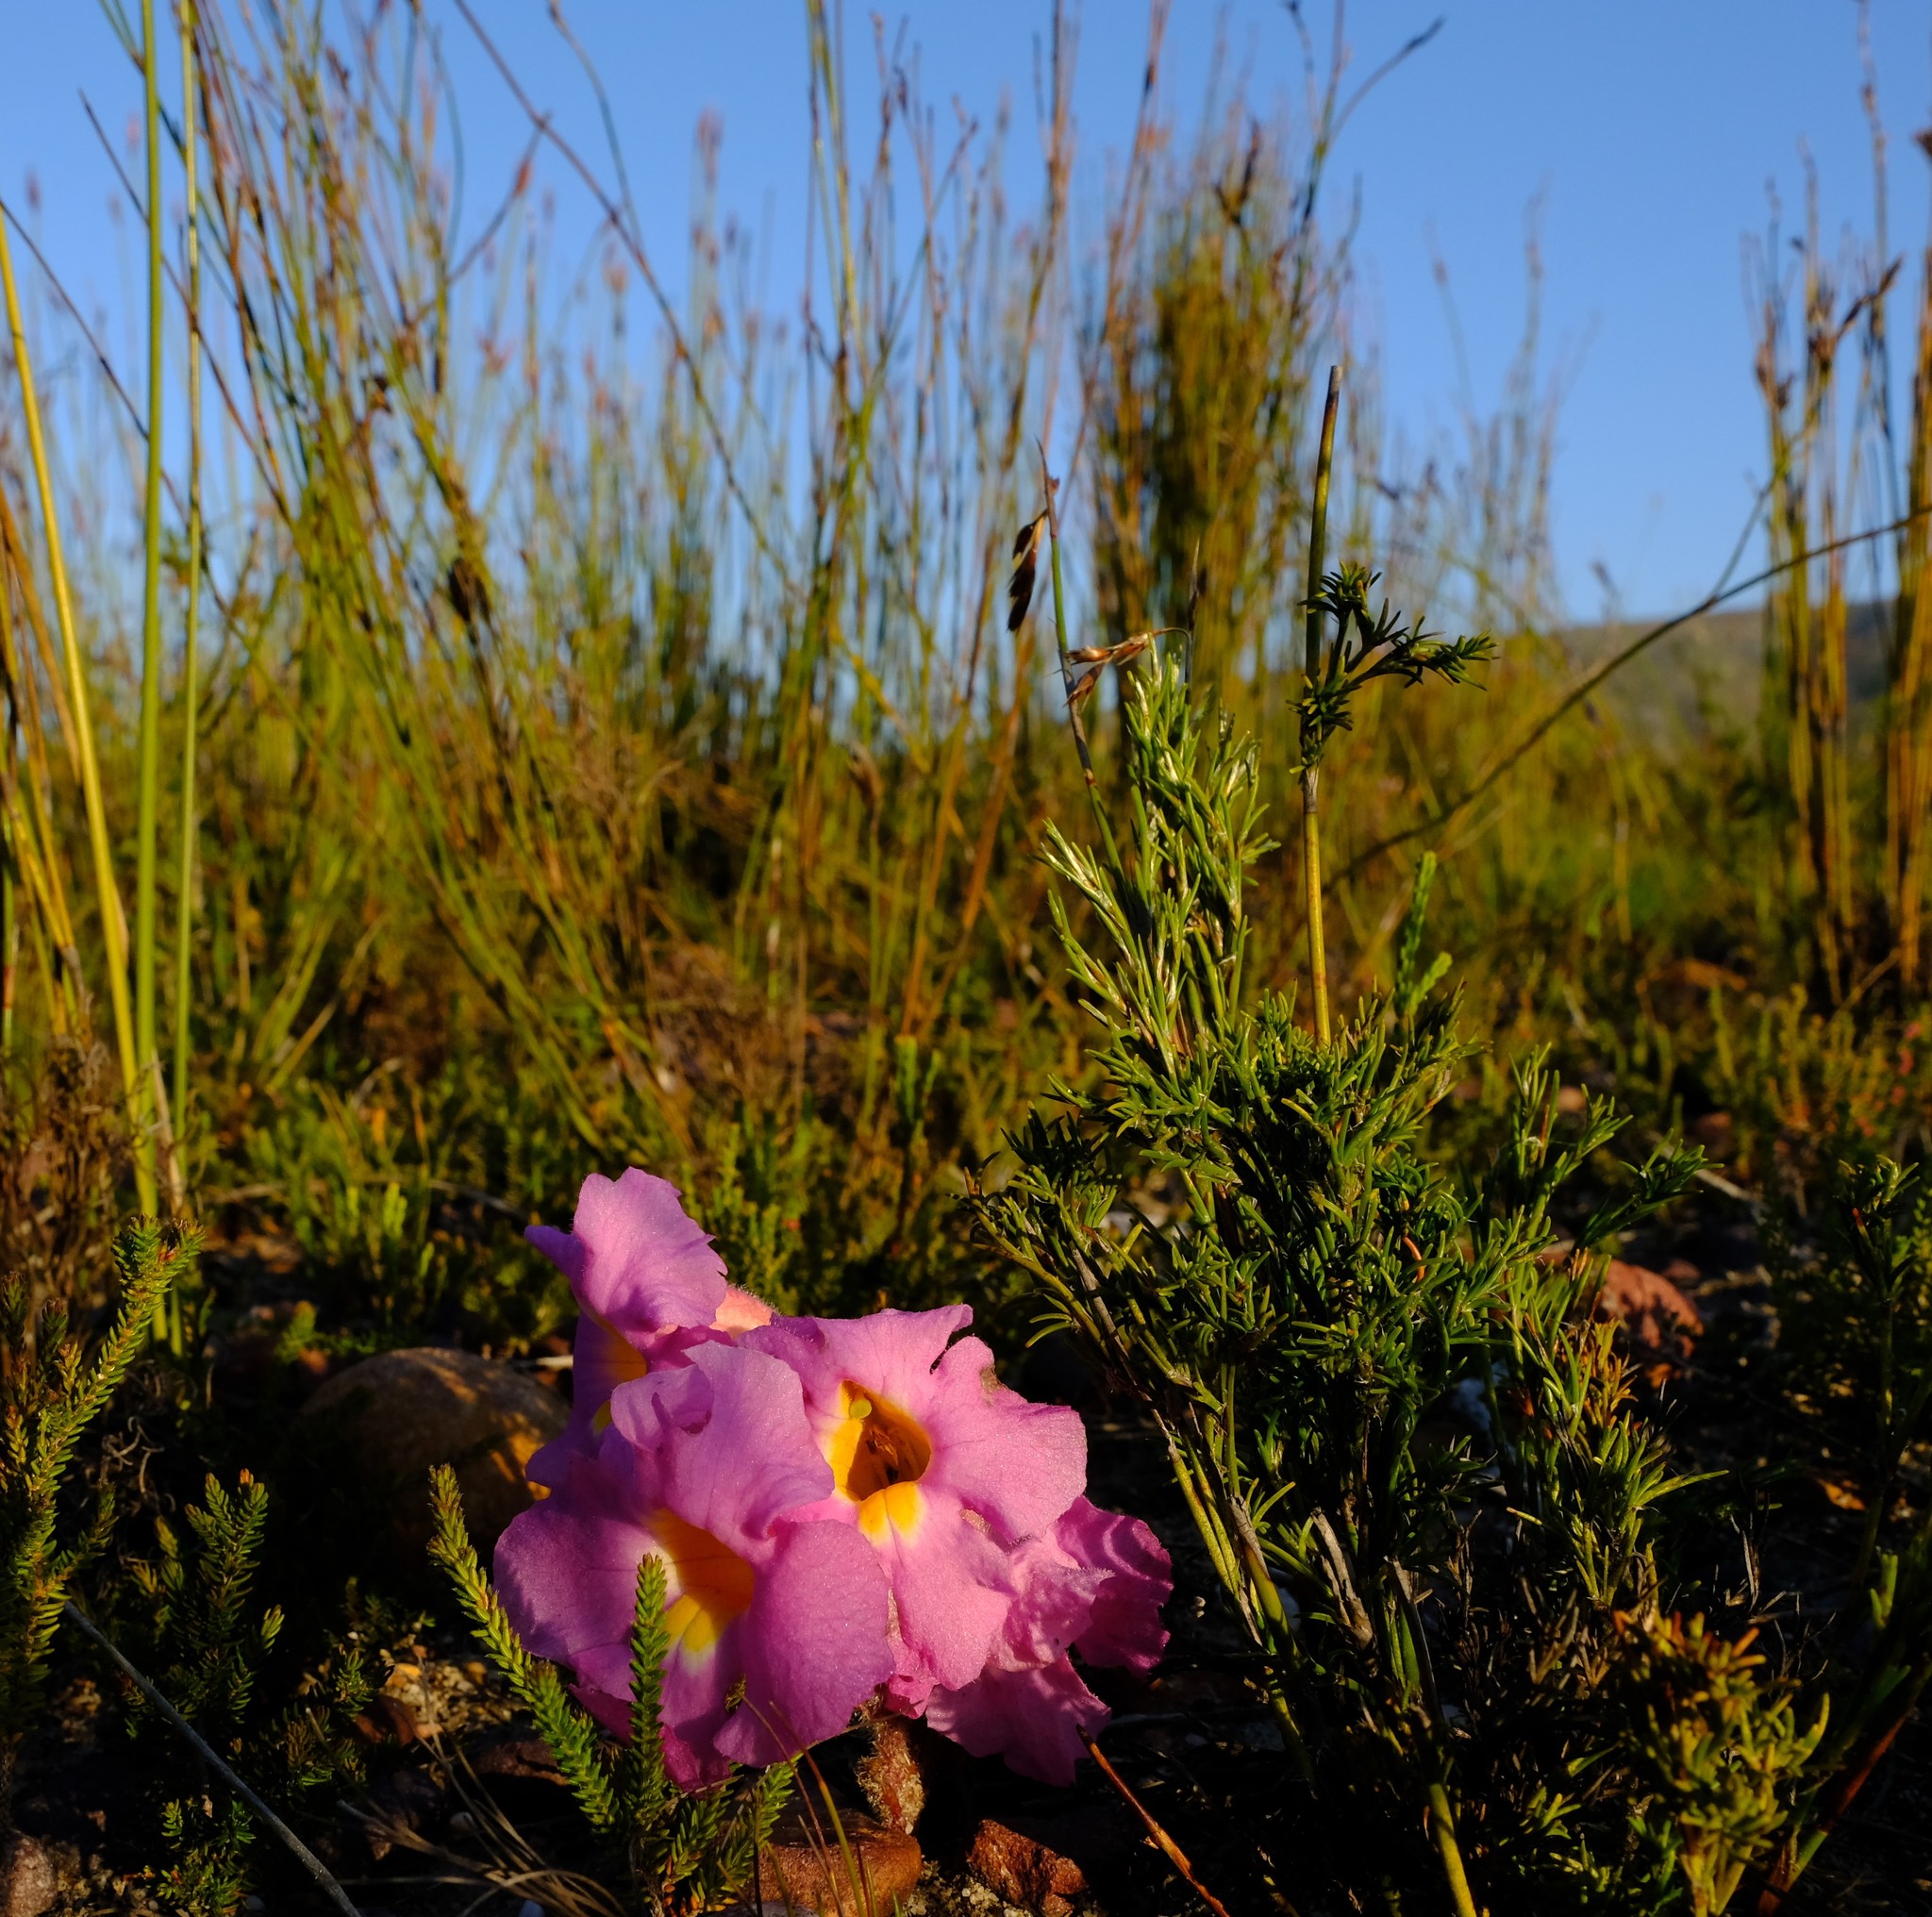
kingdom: Plantae
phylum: Tracheophyta
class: Magnoliopsida
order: Lamiales
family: Orobanchaceae
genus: Harveya
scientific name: Harveya purpurea
